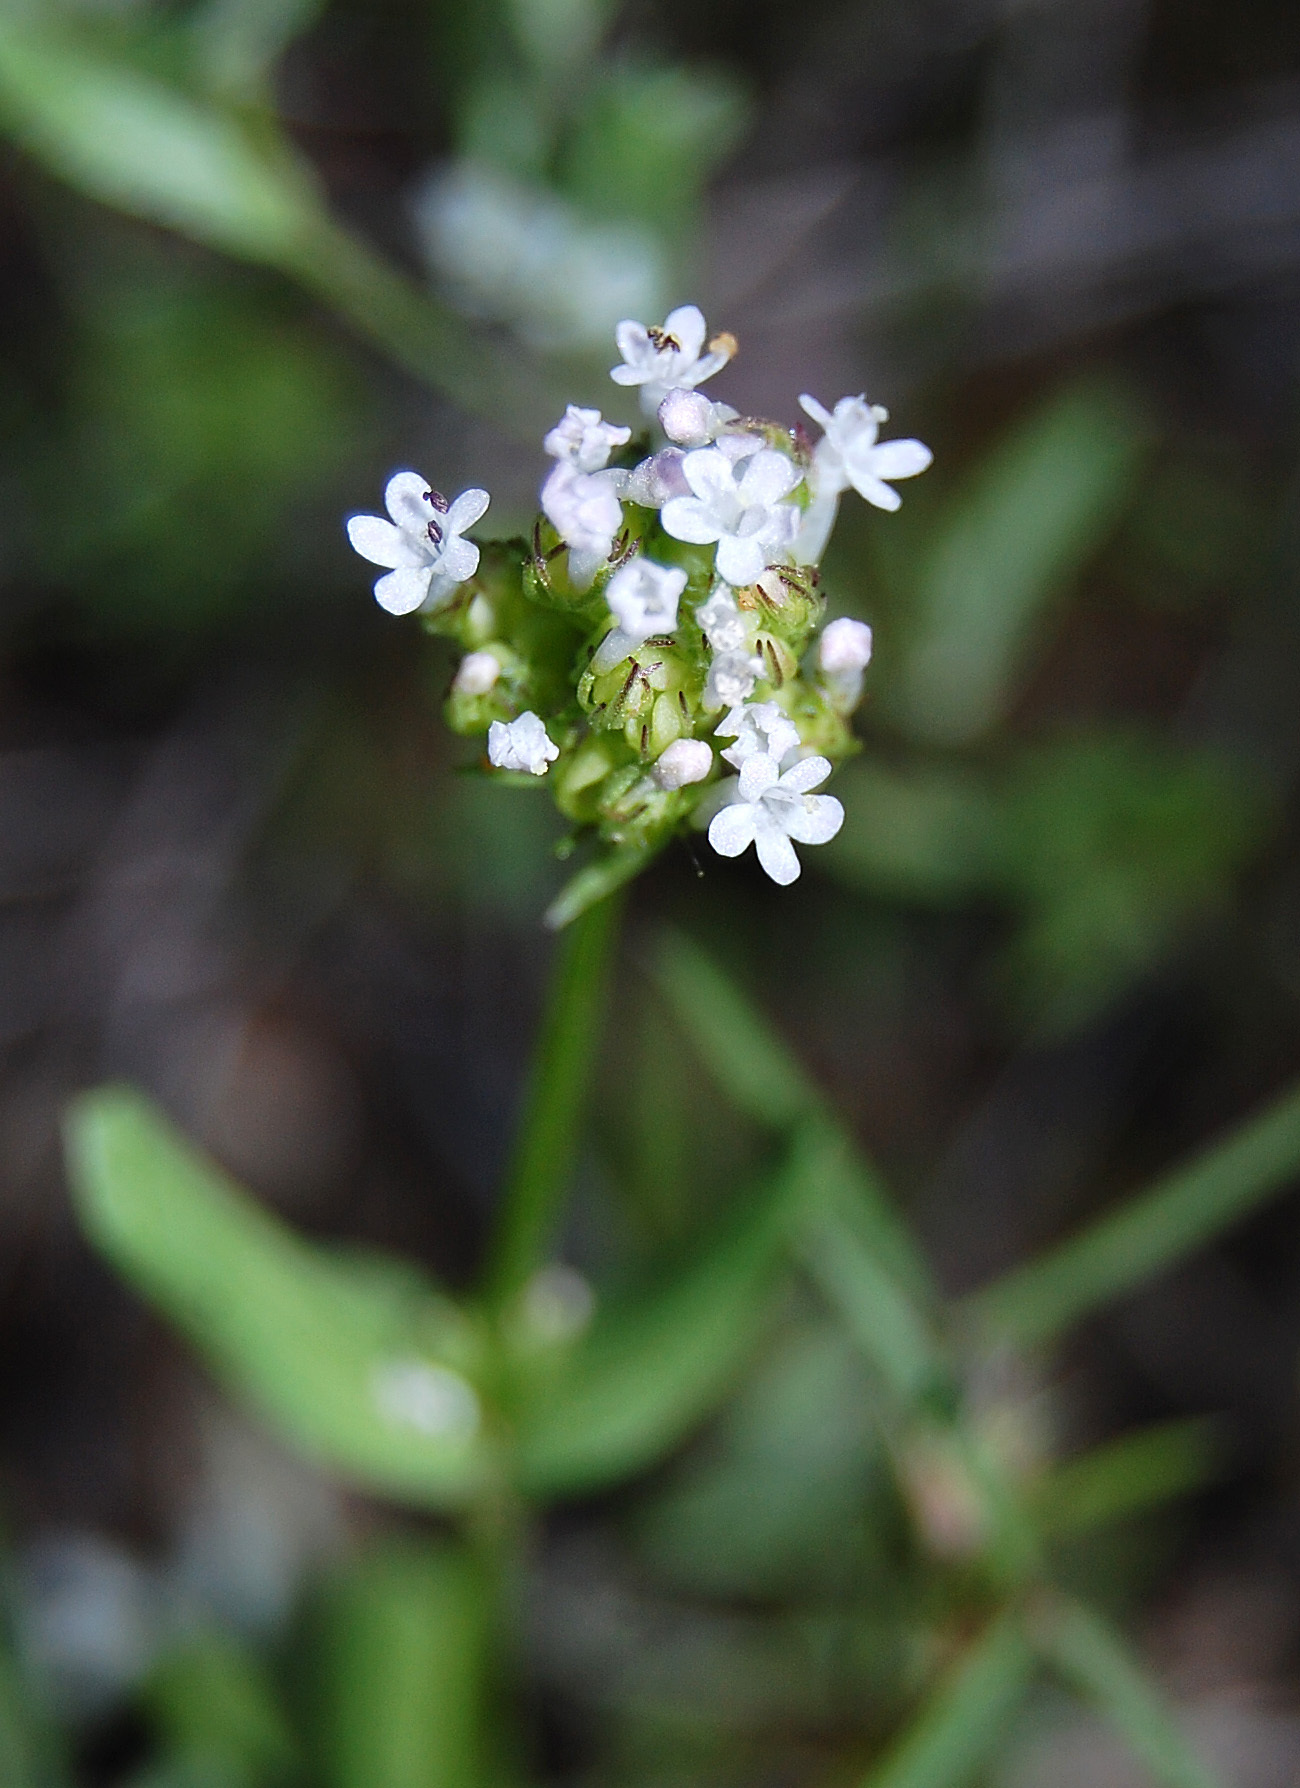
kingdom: Plantae
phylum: Tracheophyta
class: Magnoliopsida
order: Dipsacales
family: Caprifoliaceae
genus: Plectritis
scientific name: Plectritis macroptera
